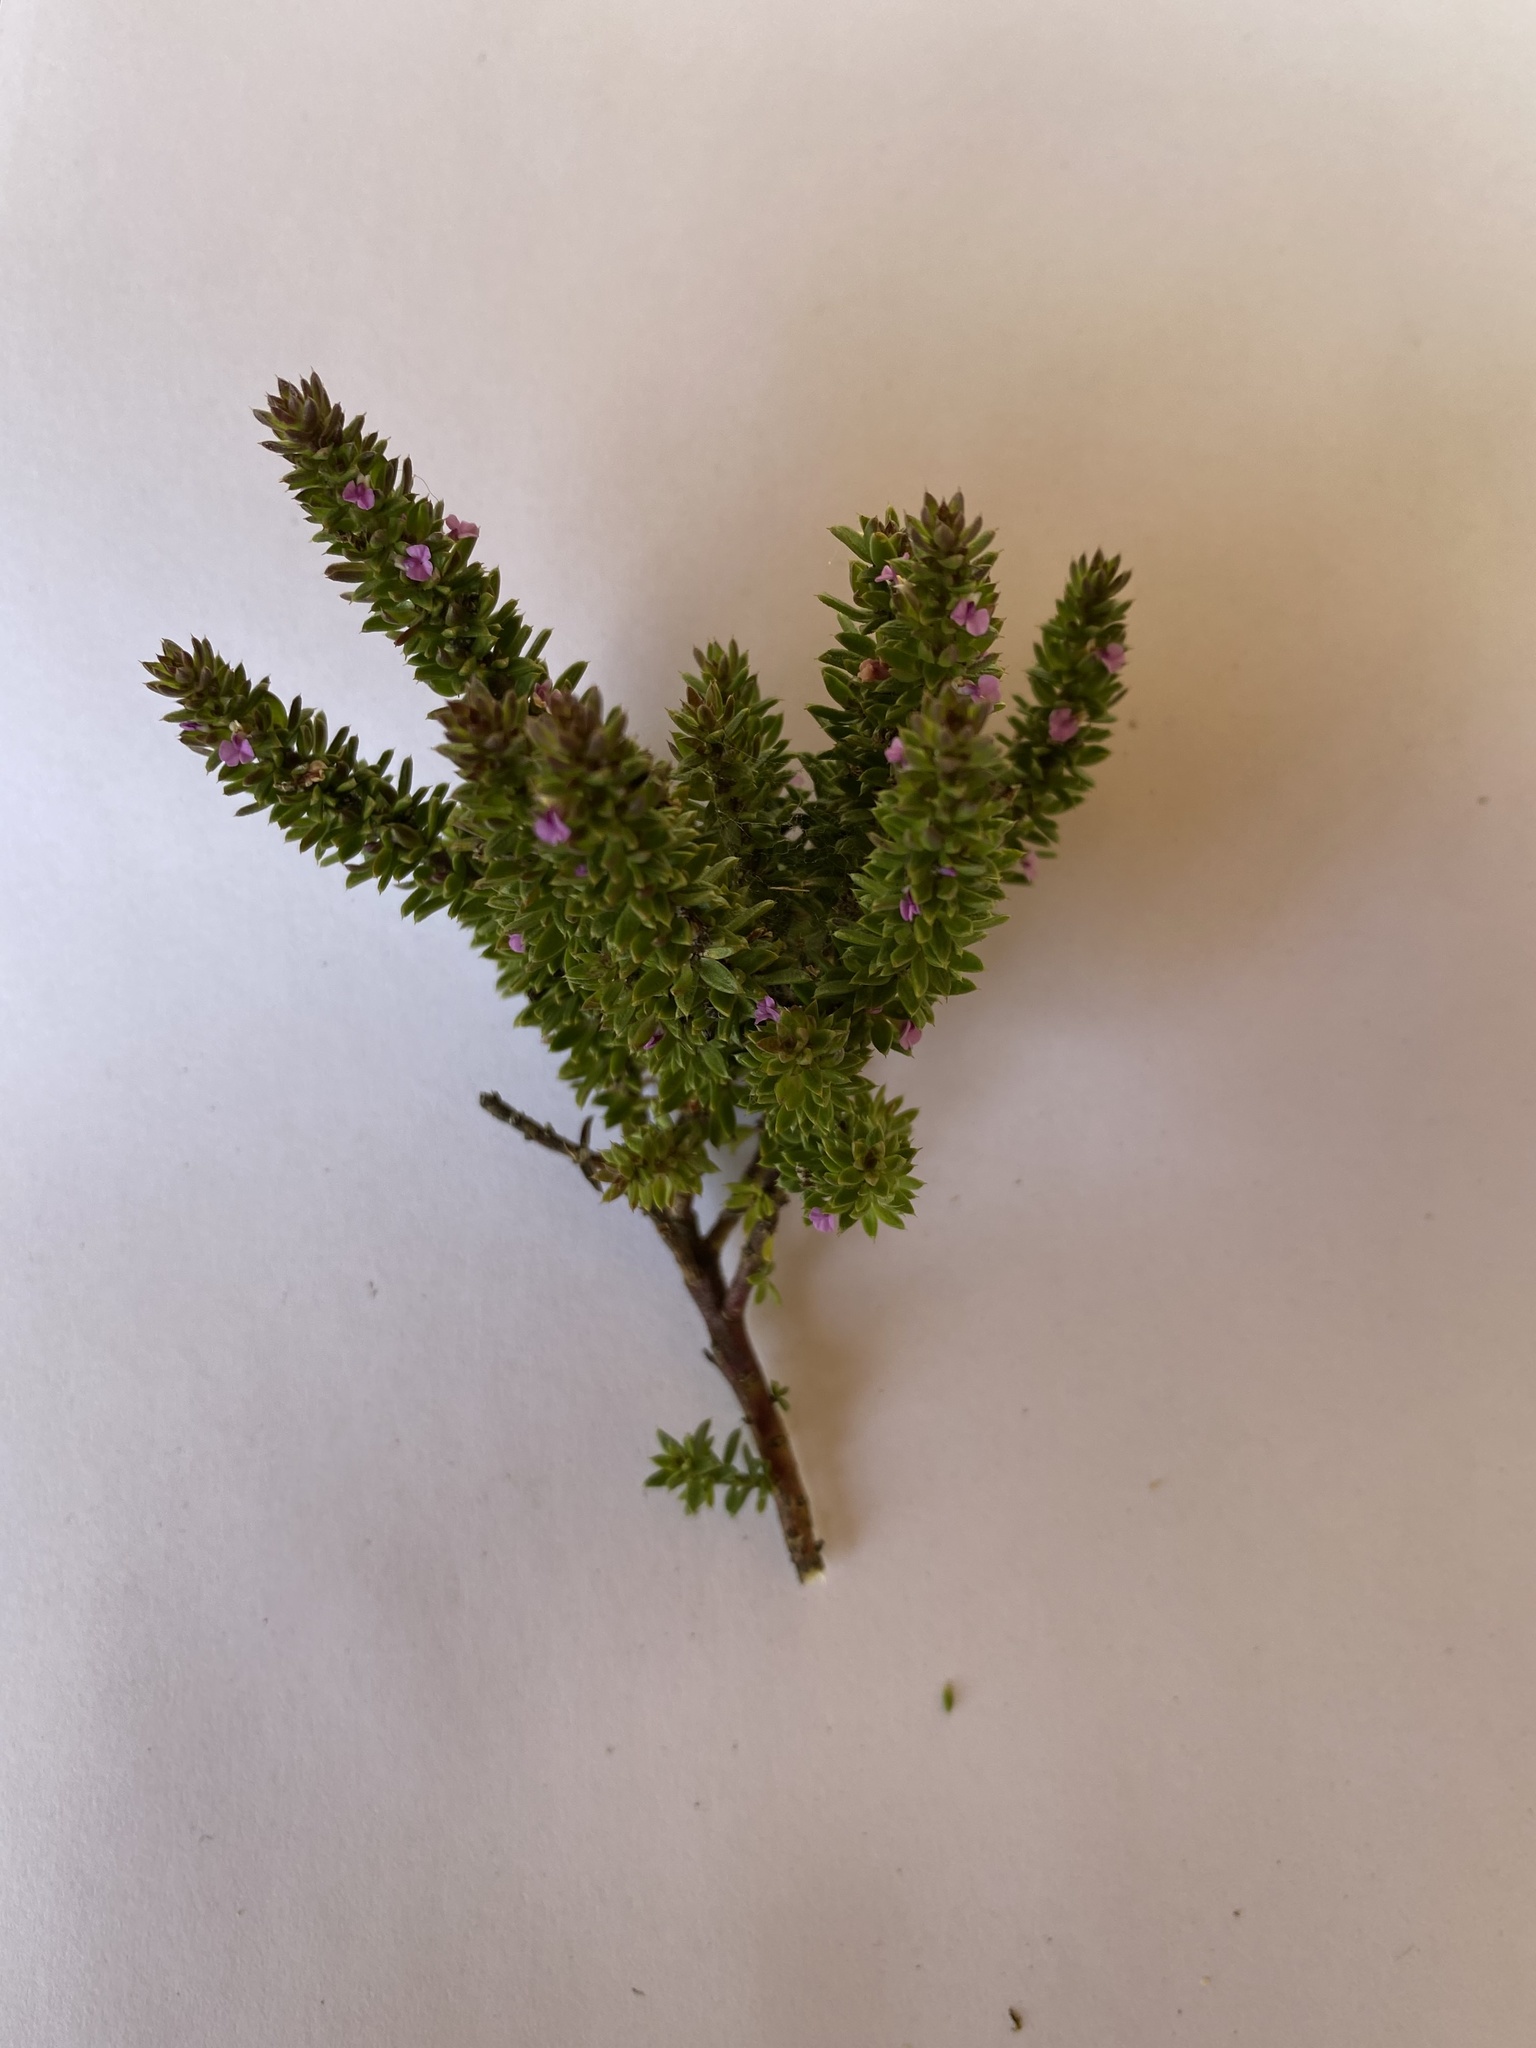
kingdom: Plantae
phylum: Tracheophyta
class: Magnoliopsida
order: Fabales
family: Polygalaceae
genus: Muraltia
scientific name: Muraltia alopecuroides
